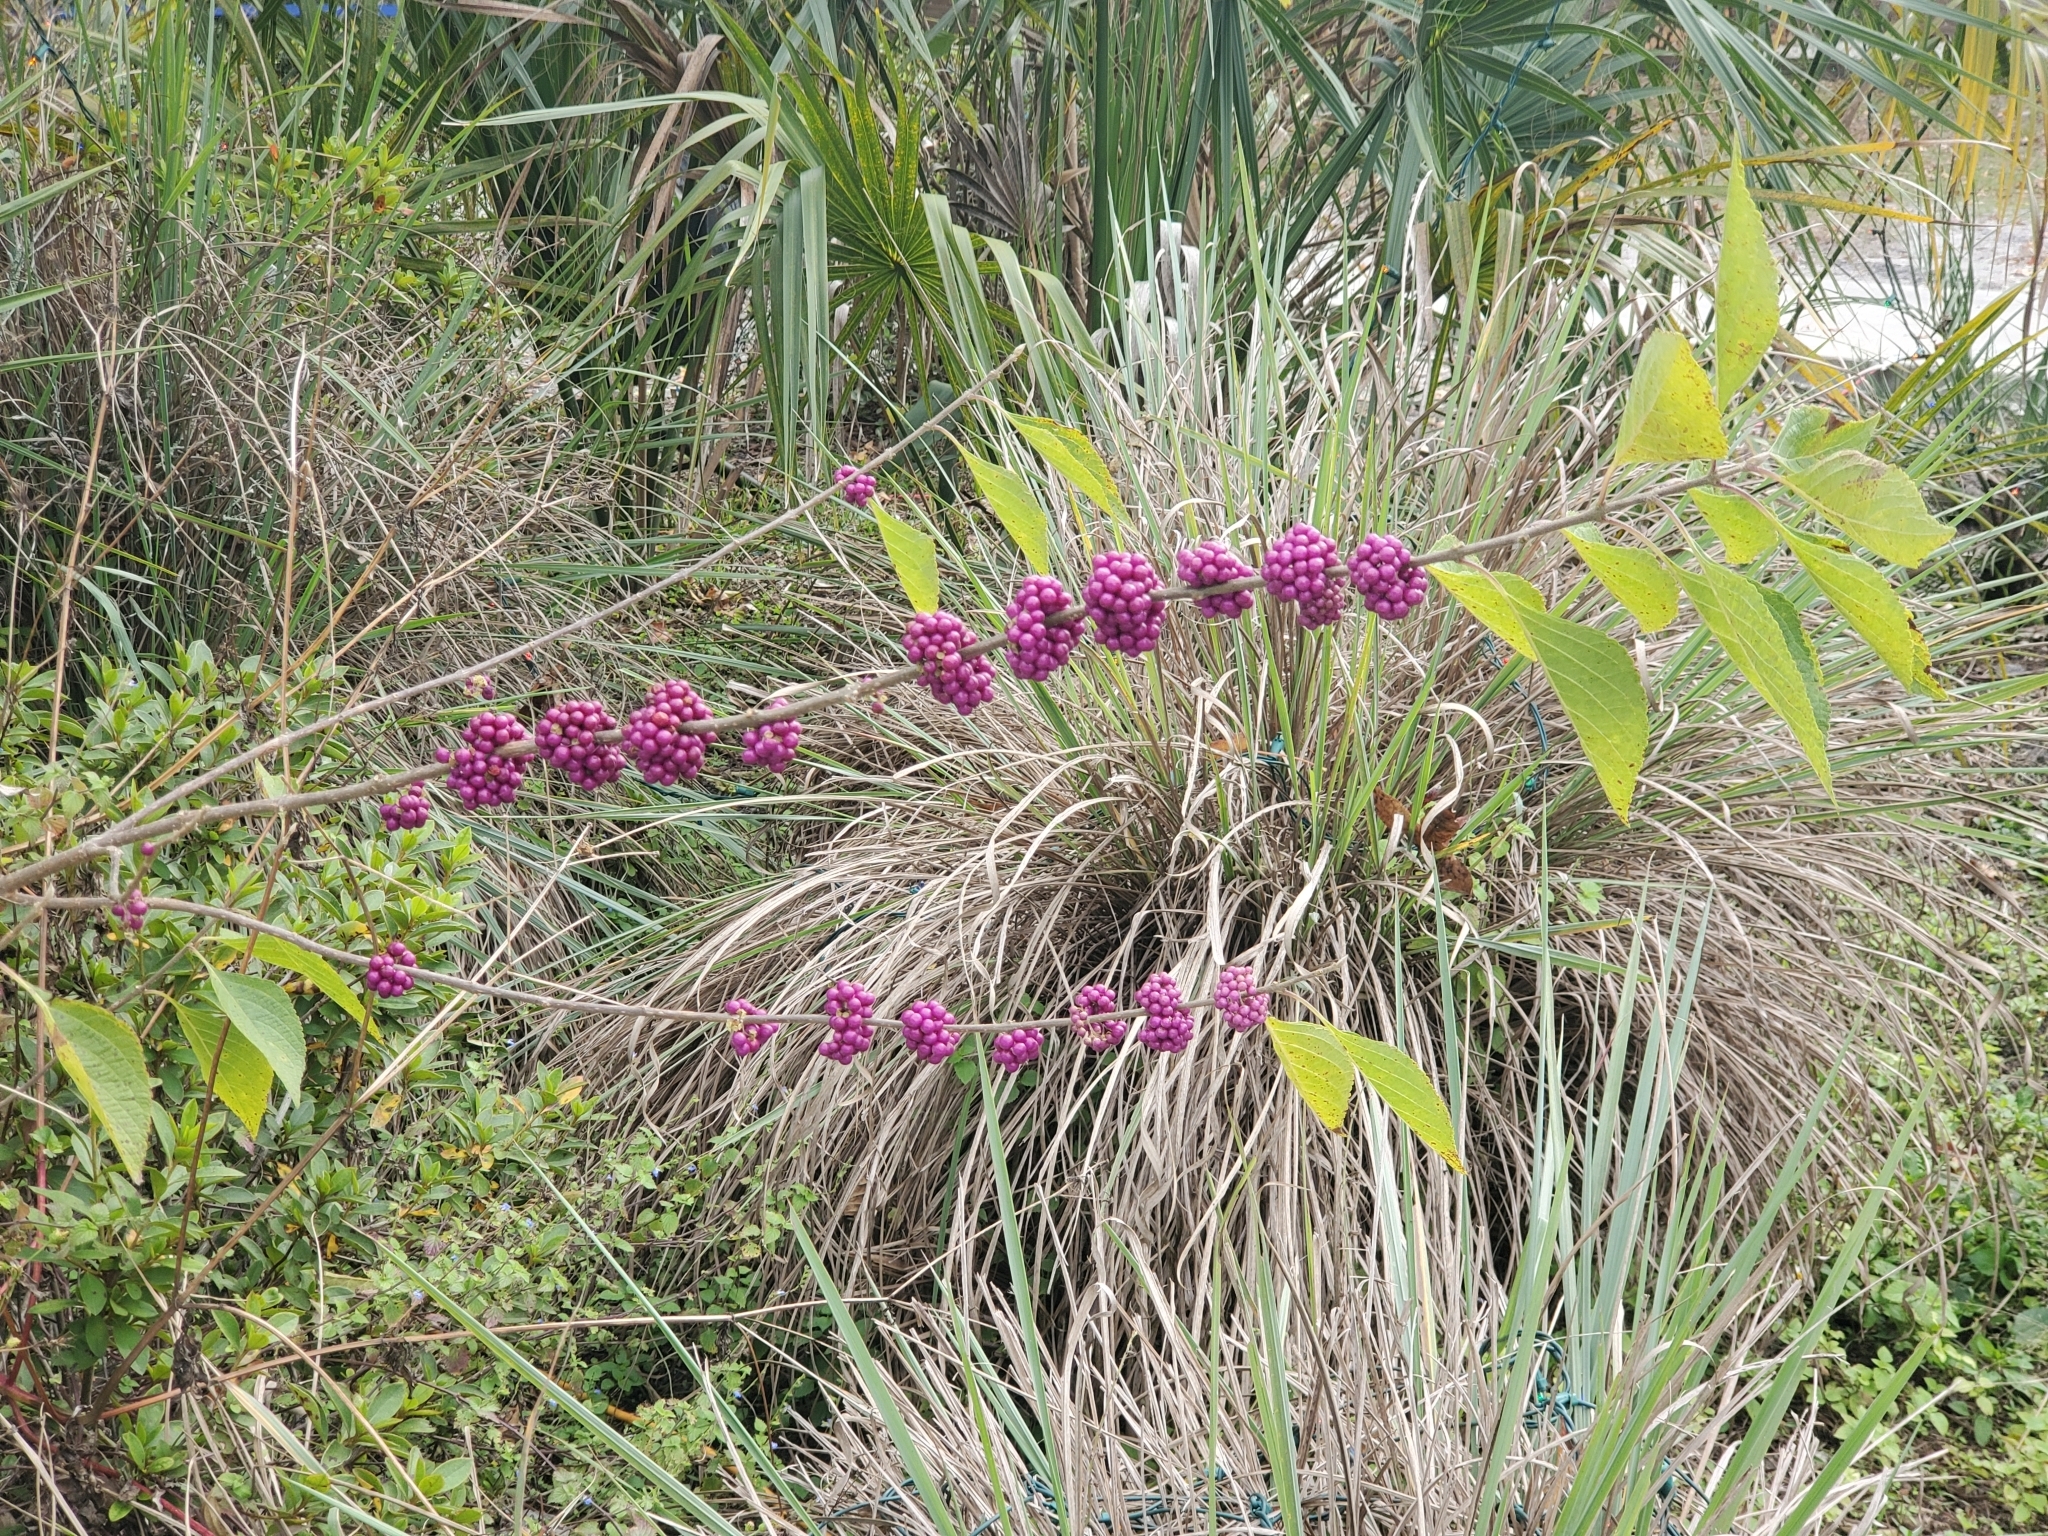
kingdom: Plantae
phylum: Tracheophyta
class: Magnoliopsida
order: Lamiales
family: Lamiaceae
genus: Callicarpa
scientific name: Callicarpa americana
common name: American beautyberry
